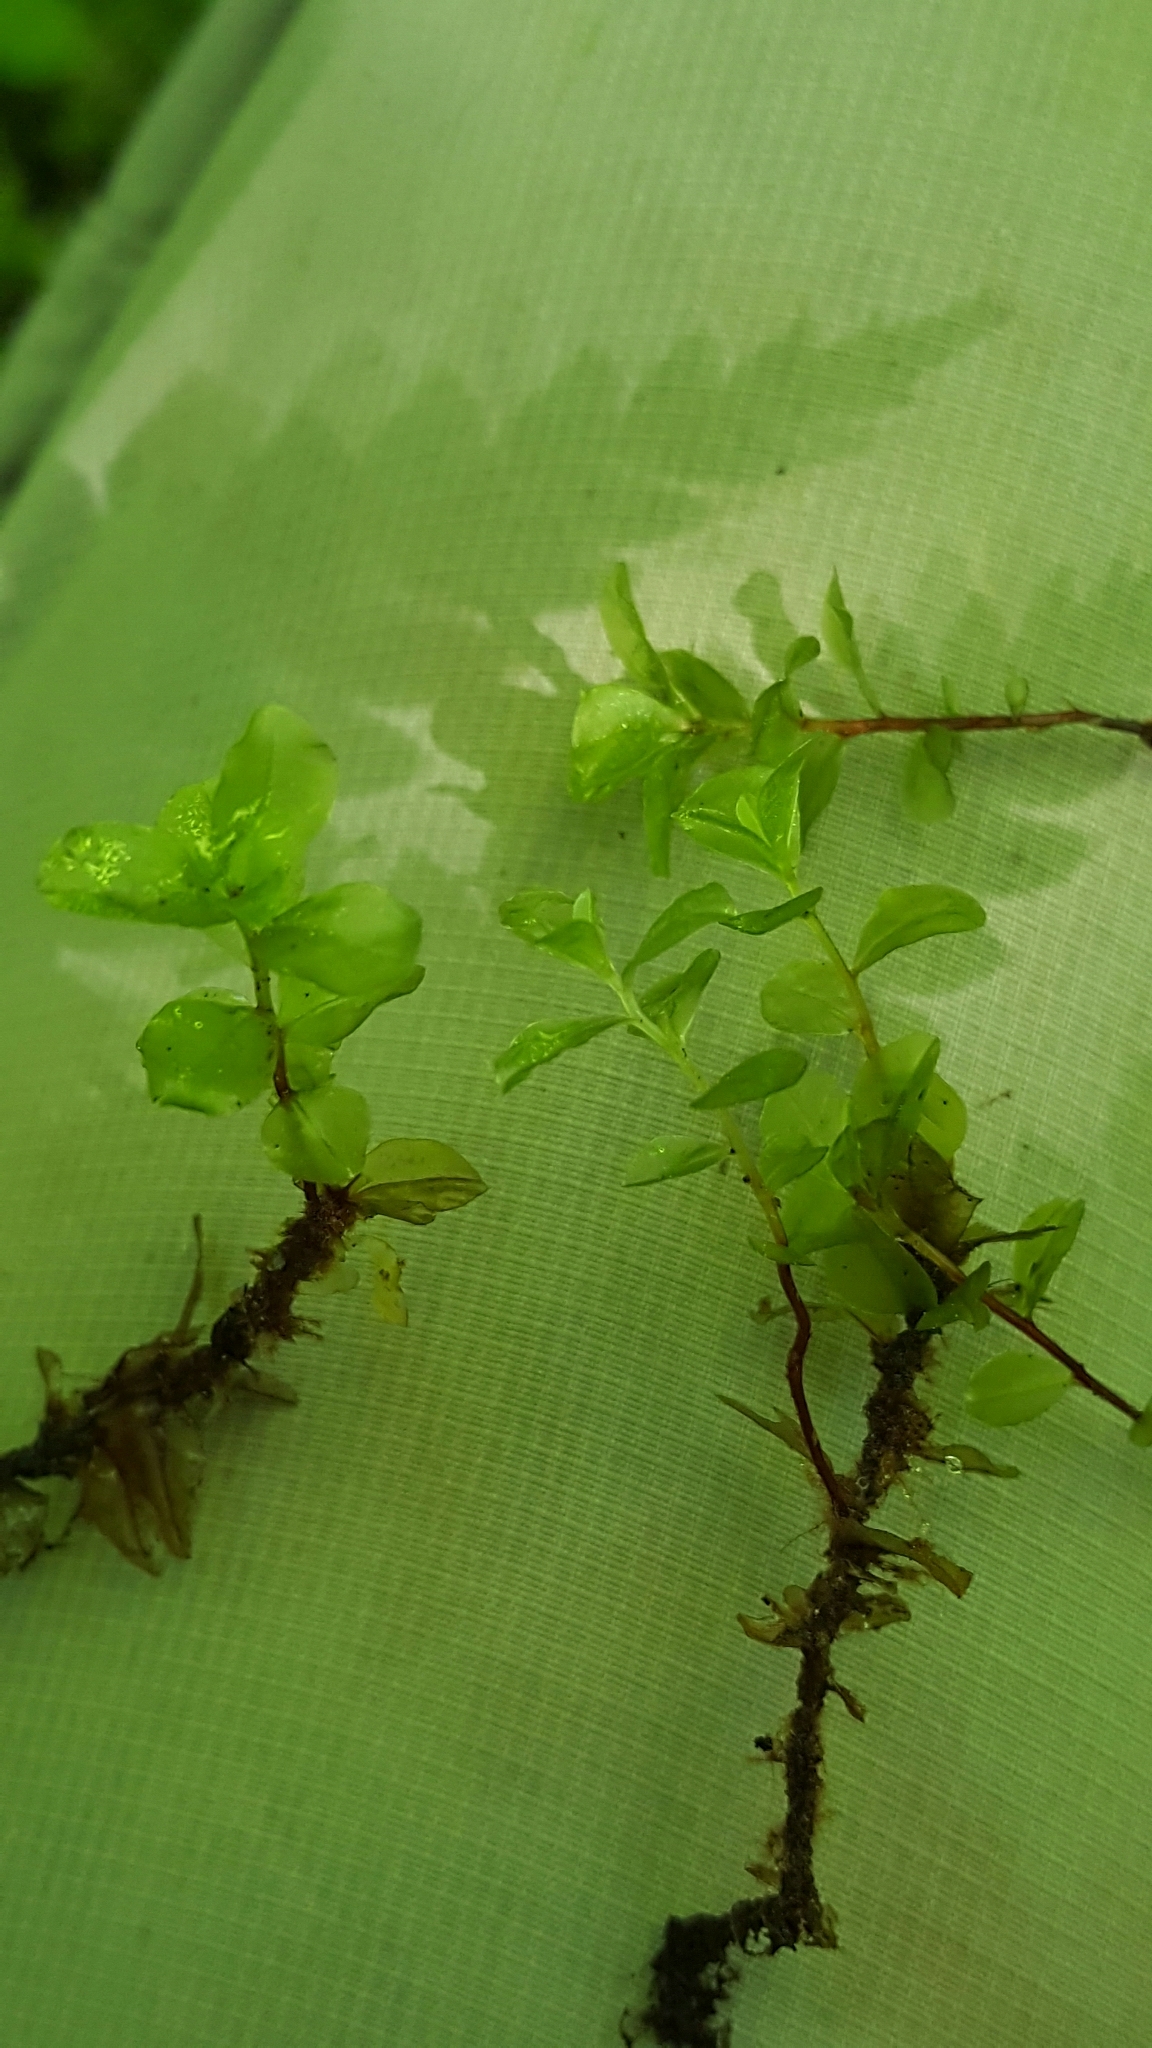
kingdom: Plantae
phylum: Bryophyta
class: Bryopsida
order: Bryales
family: Mniaceae
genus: Rhizomnium
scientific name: Rhizomnium punctatum
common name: Dotted leafy moss
